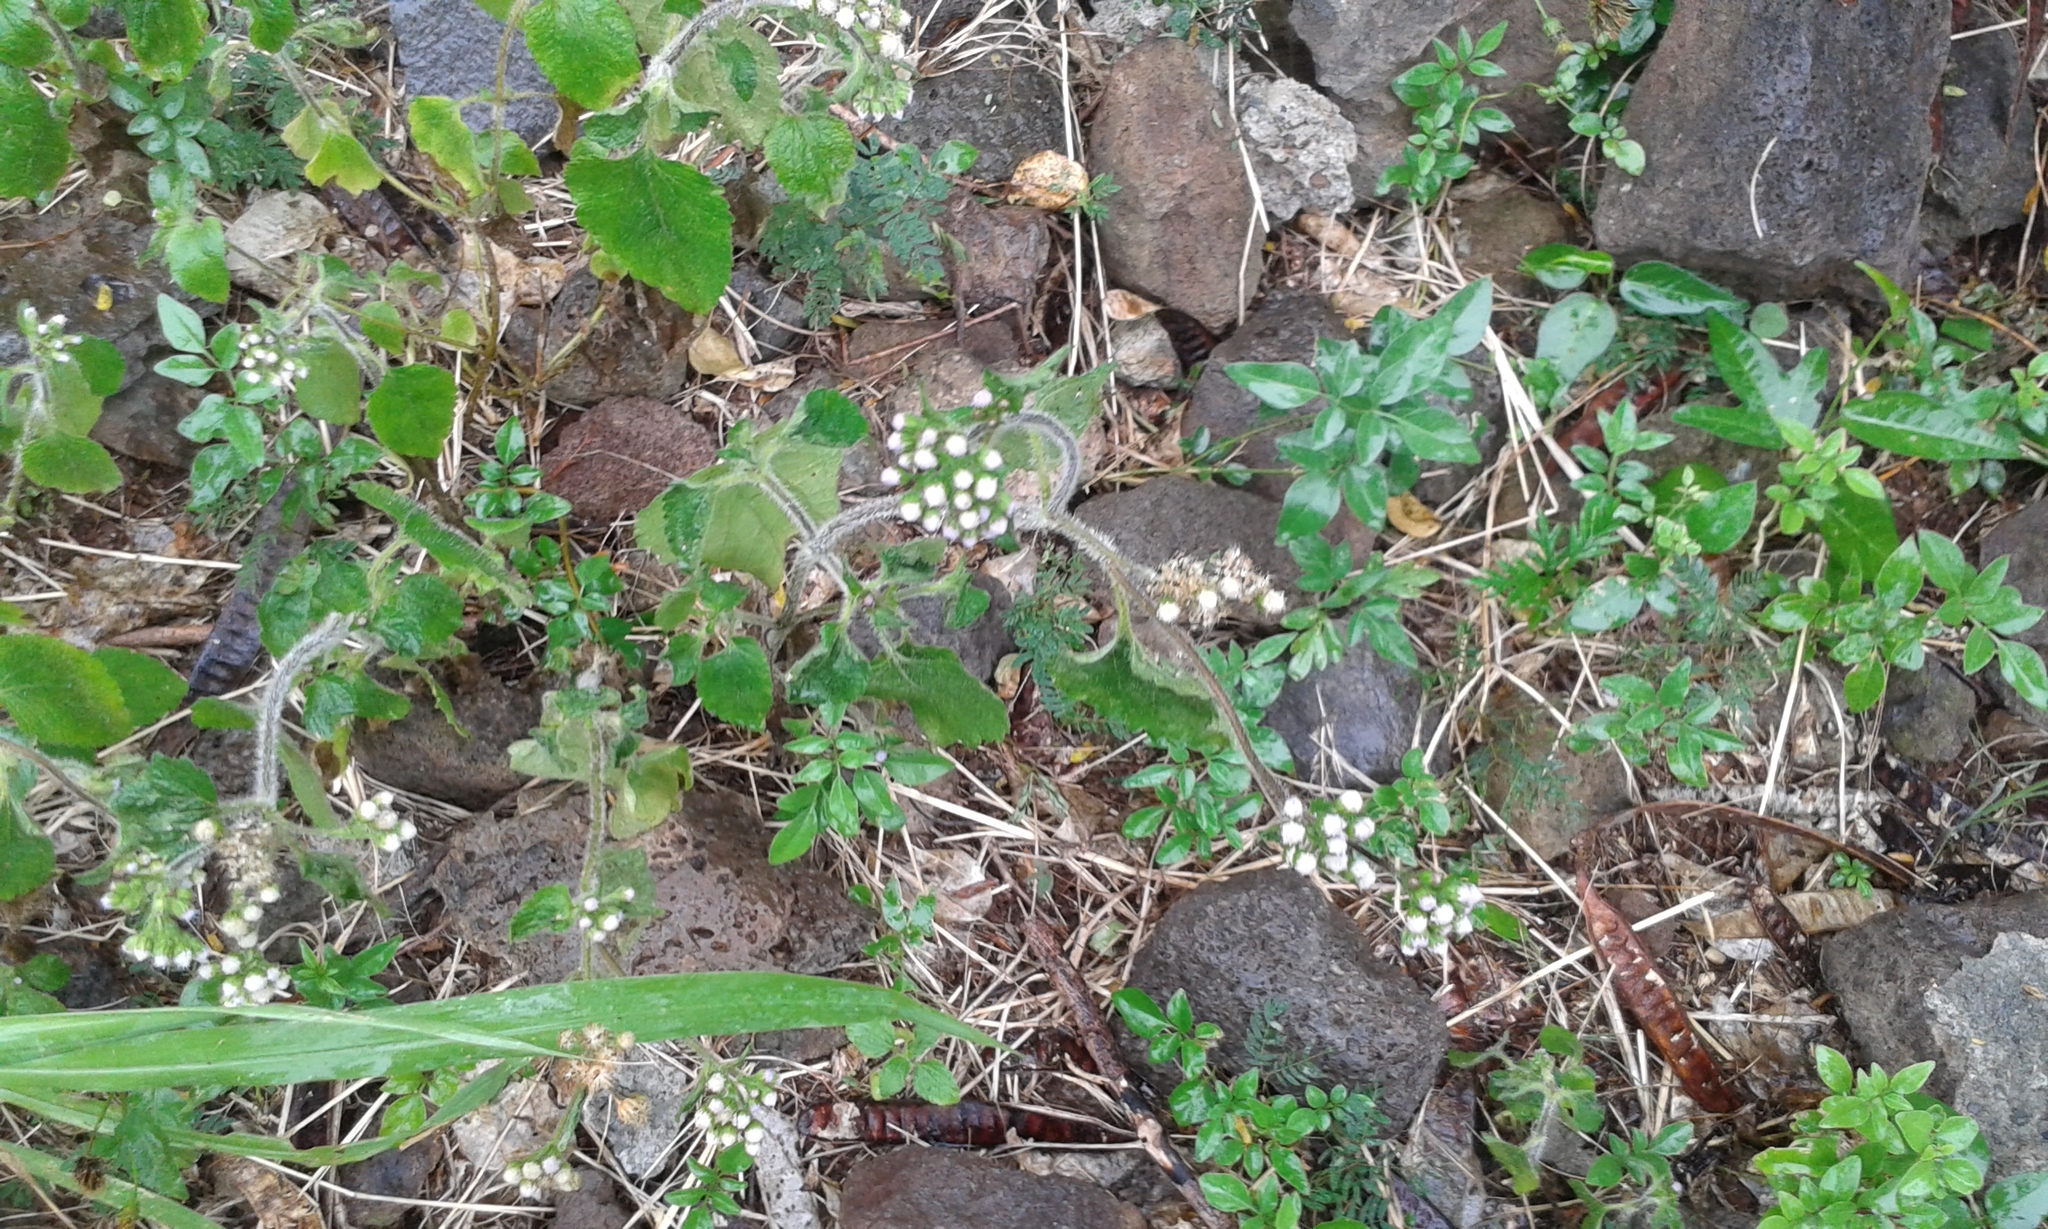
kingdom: Plantae
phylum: Tracheophyta
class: Magnoliopsida
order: Asterales
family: Asteraceae
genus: Ageratum
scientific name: Ageratum conyzoides
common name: Tropical whiteweed
